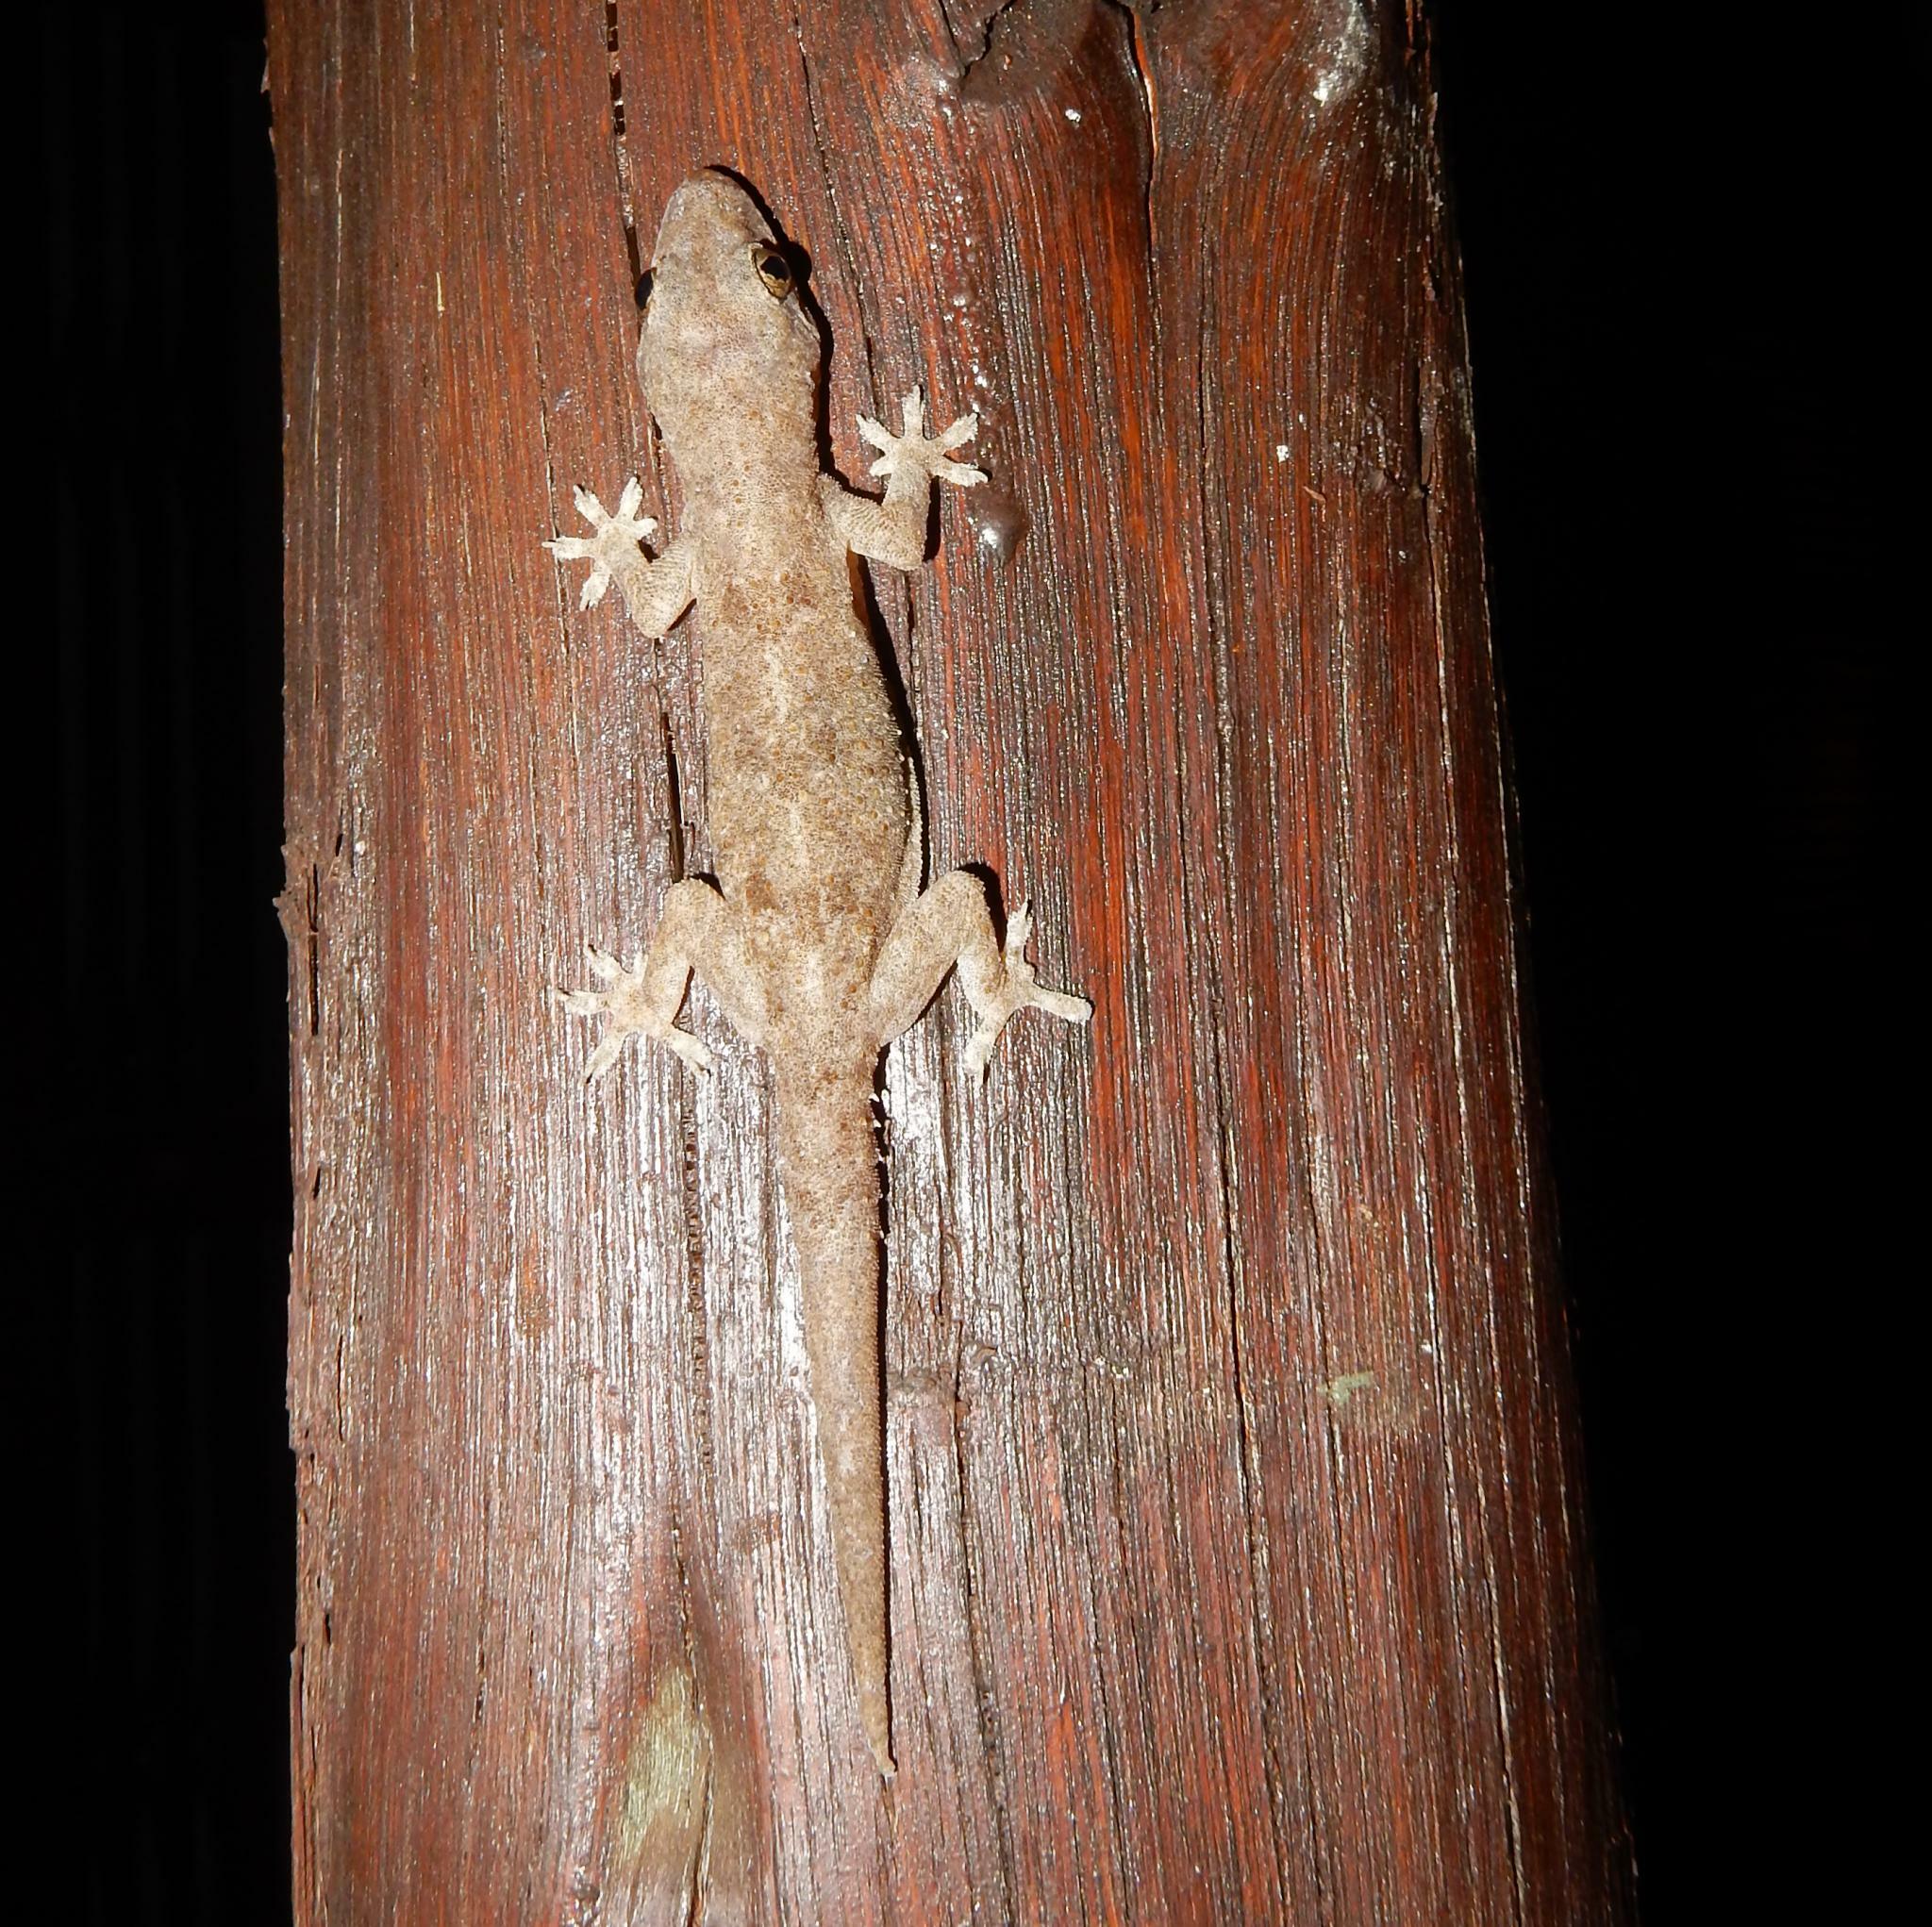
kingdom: Animalia
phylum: Chordata
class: Squamata
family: Gekkonidae
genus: Hemidactylus
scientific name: Hemidactylus mabouia
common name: House gecko
